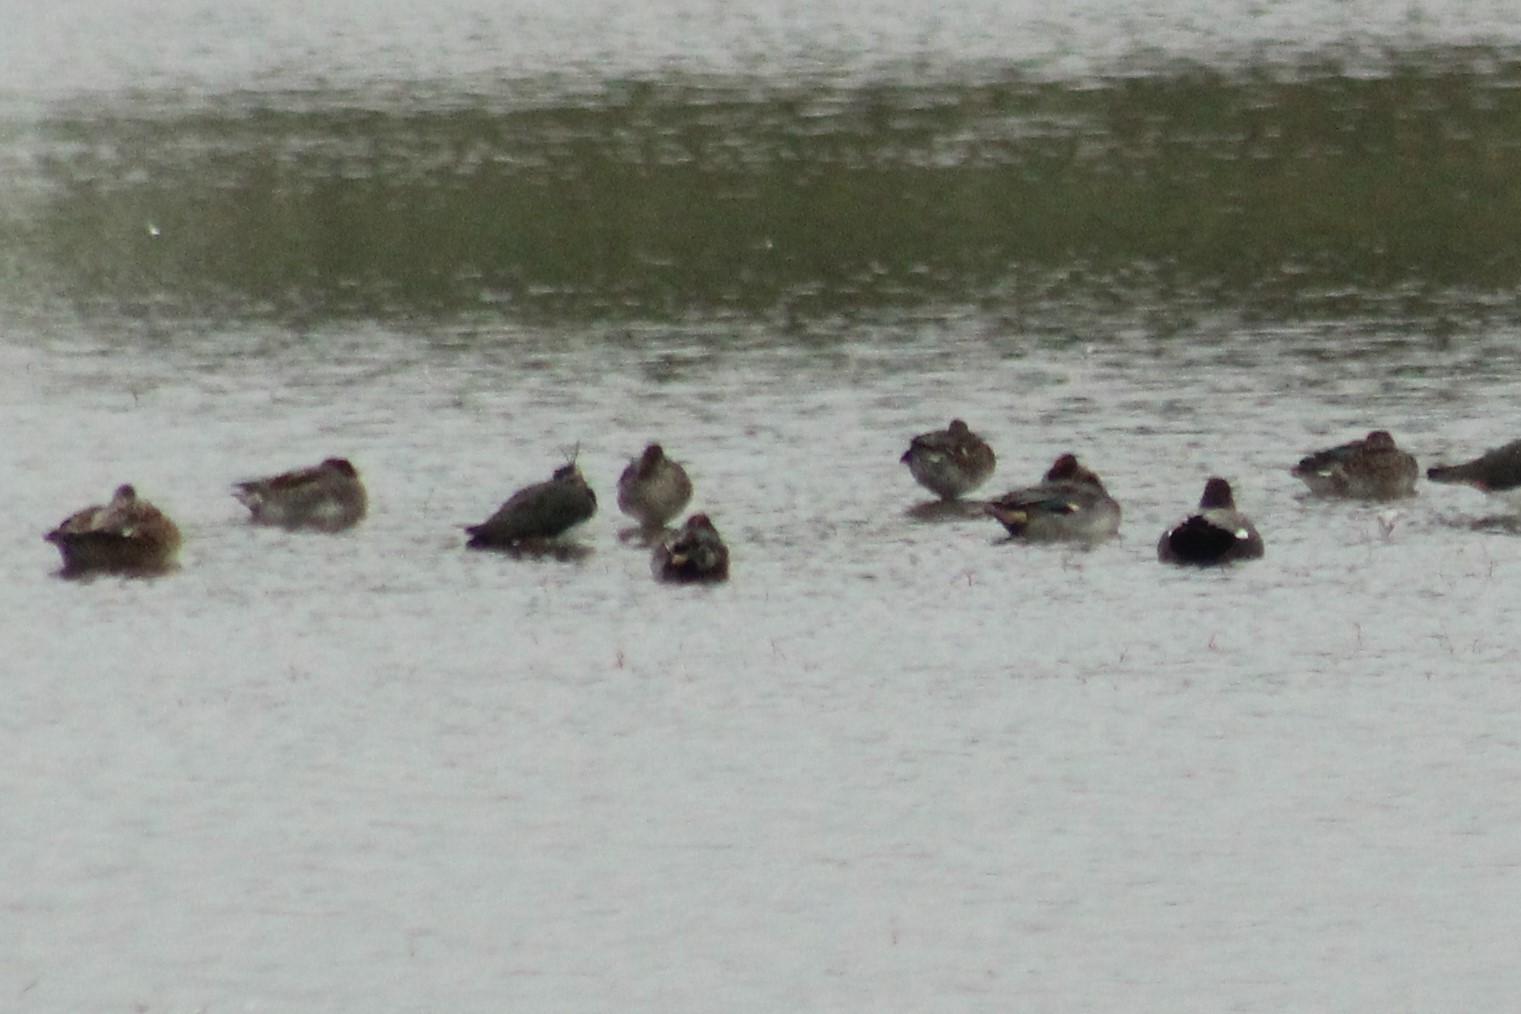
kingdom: Animalia
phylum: Chordata
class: Aves
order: Anseriformes
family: Anatidae
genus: Mareca
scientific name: Mareca strepera
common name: Gadwall
